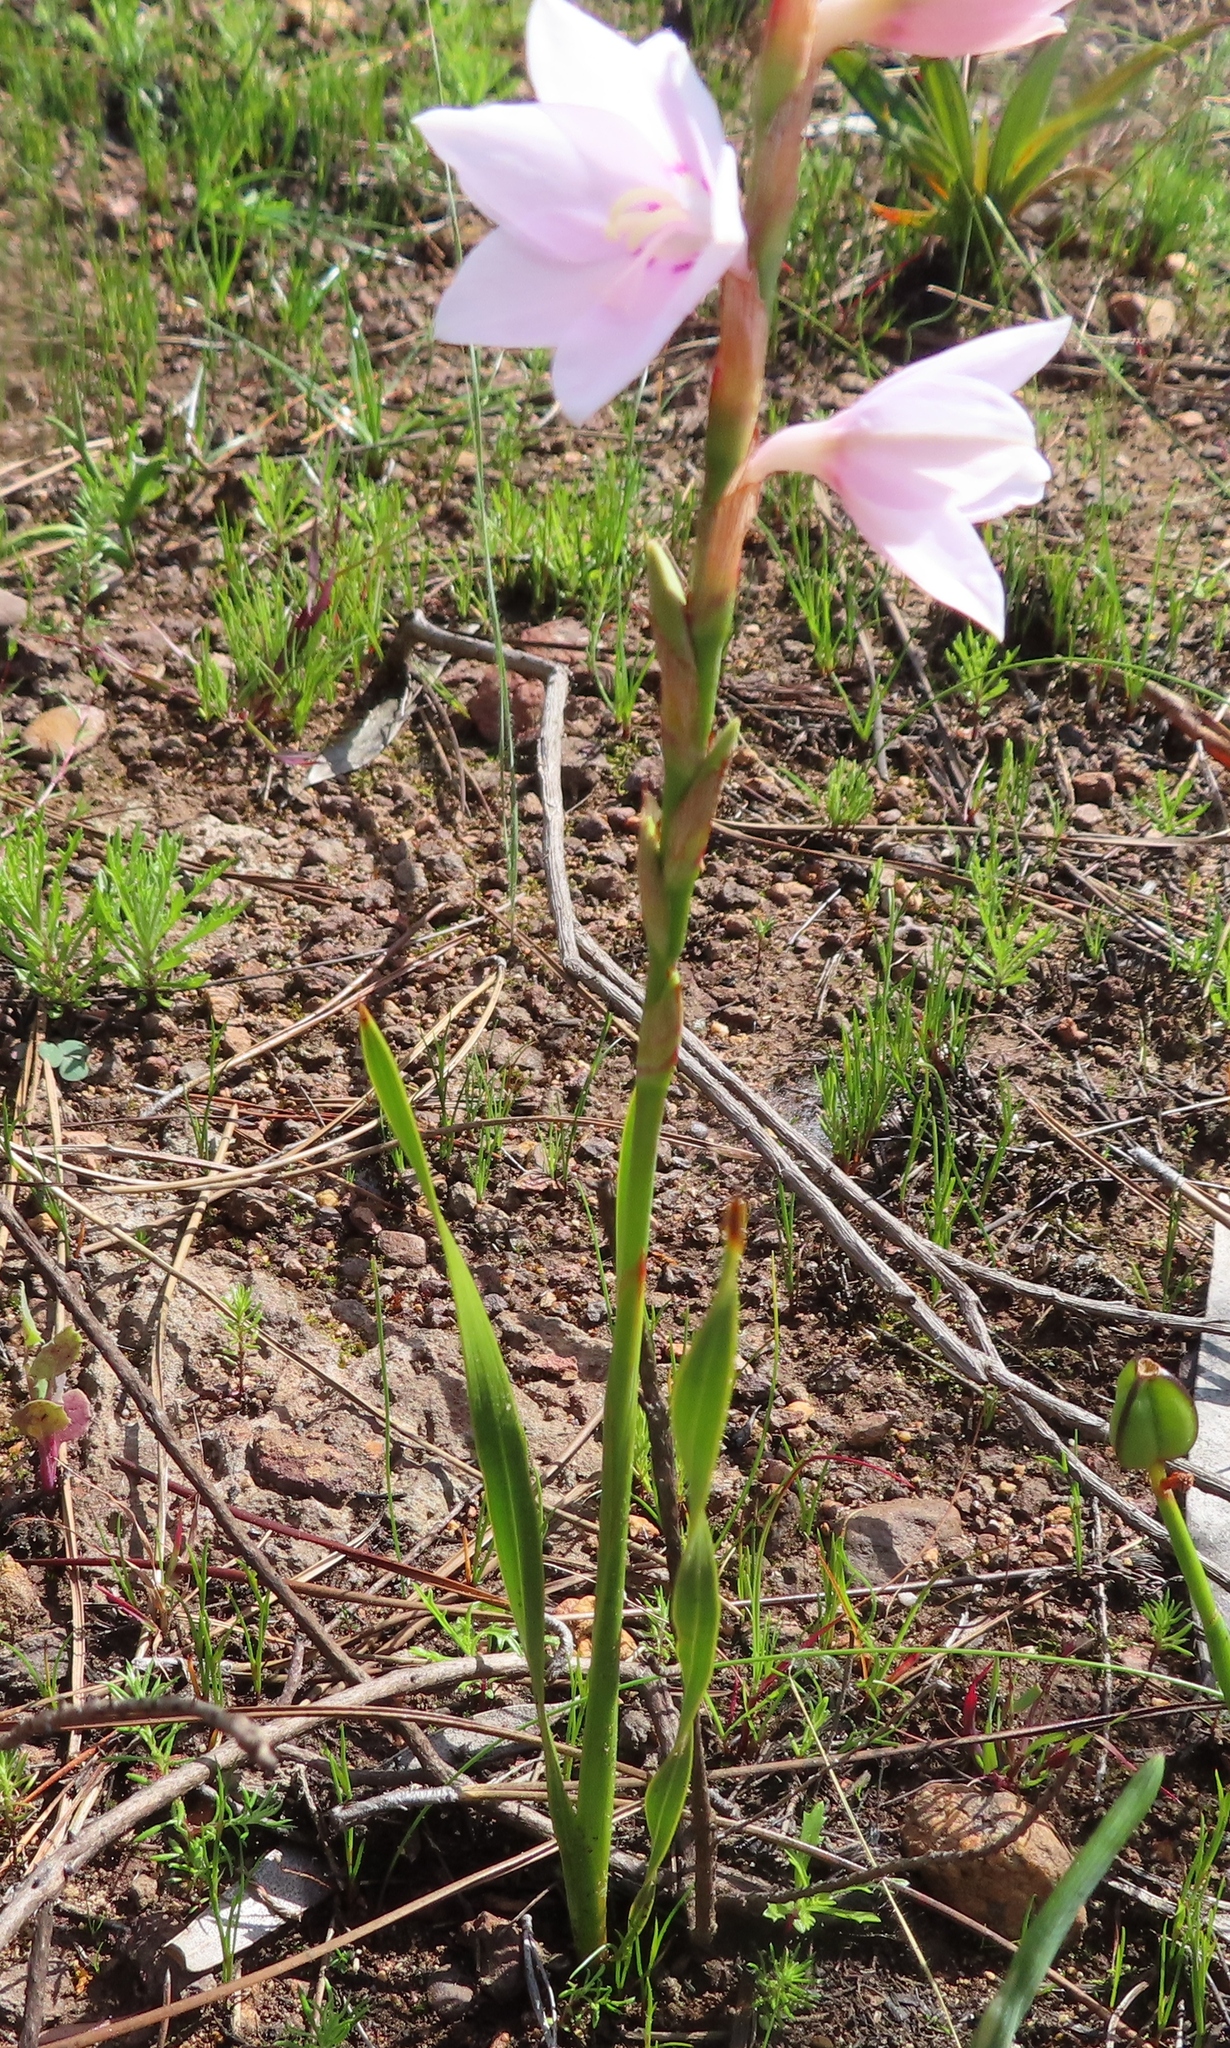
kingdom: Plantae
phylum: Tracheophyta
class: Liliopsida
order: Asparagales
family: Iridaceae
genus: Watsonia
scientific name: Watsonia laccata
